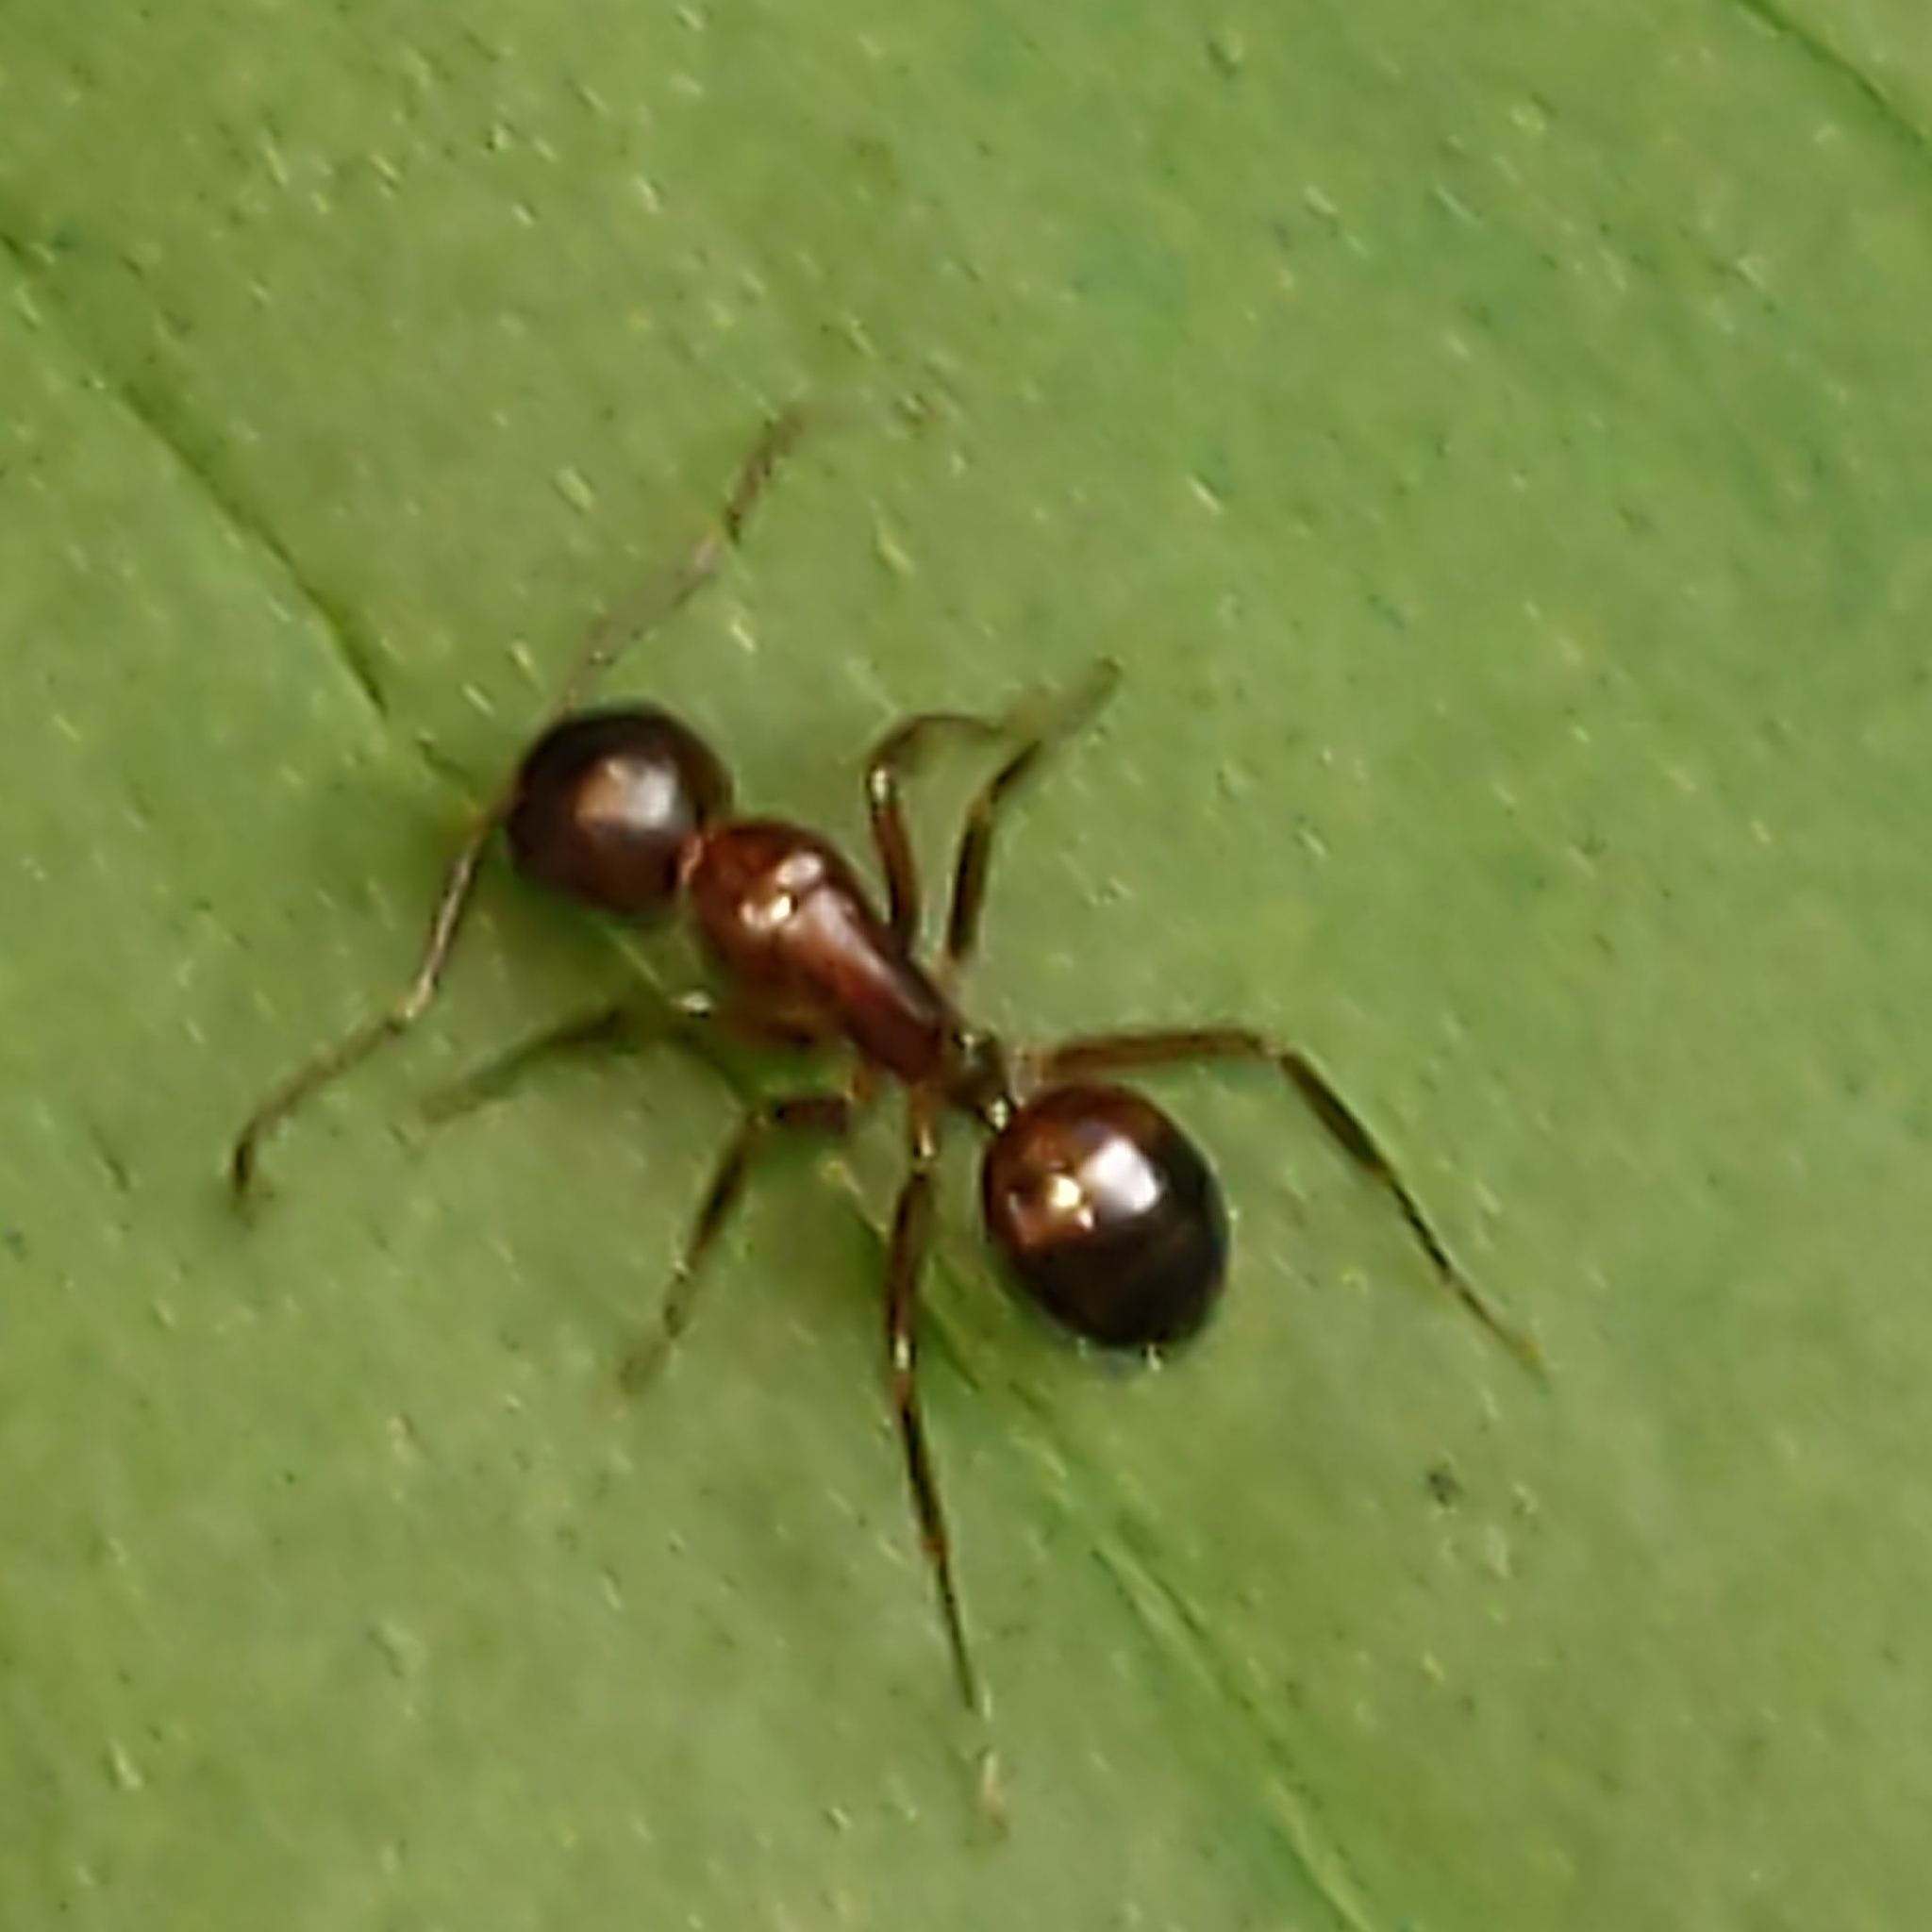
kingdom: Animalia
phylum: Arthropoda
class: Insecta
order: Hymenoptera
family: Formicidae
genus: Camponotus
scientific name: Camponotus subbarbatus
